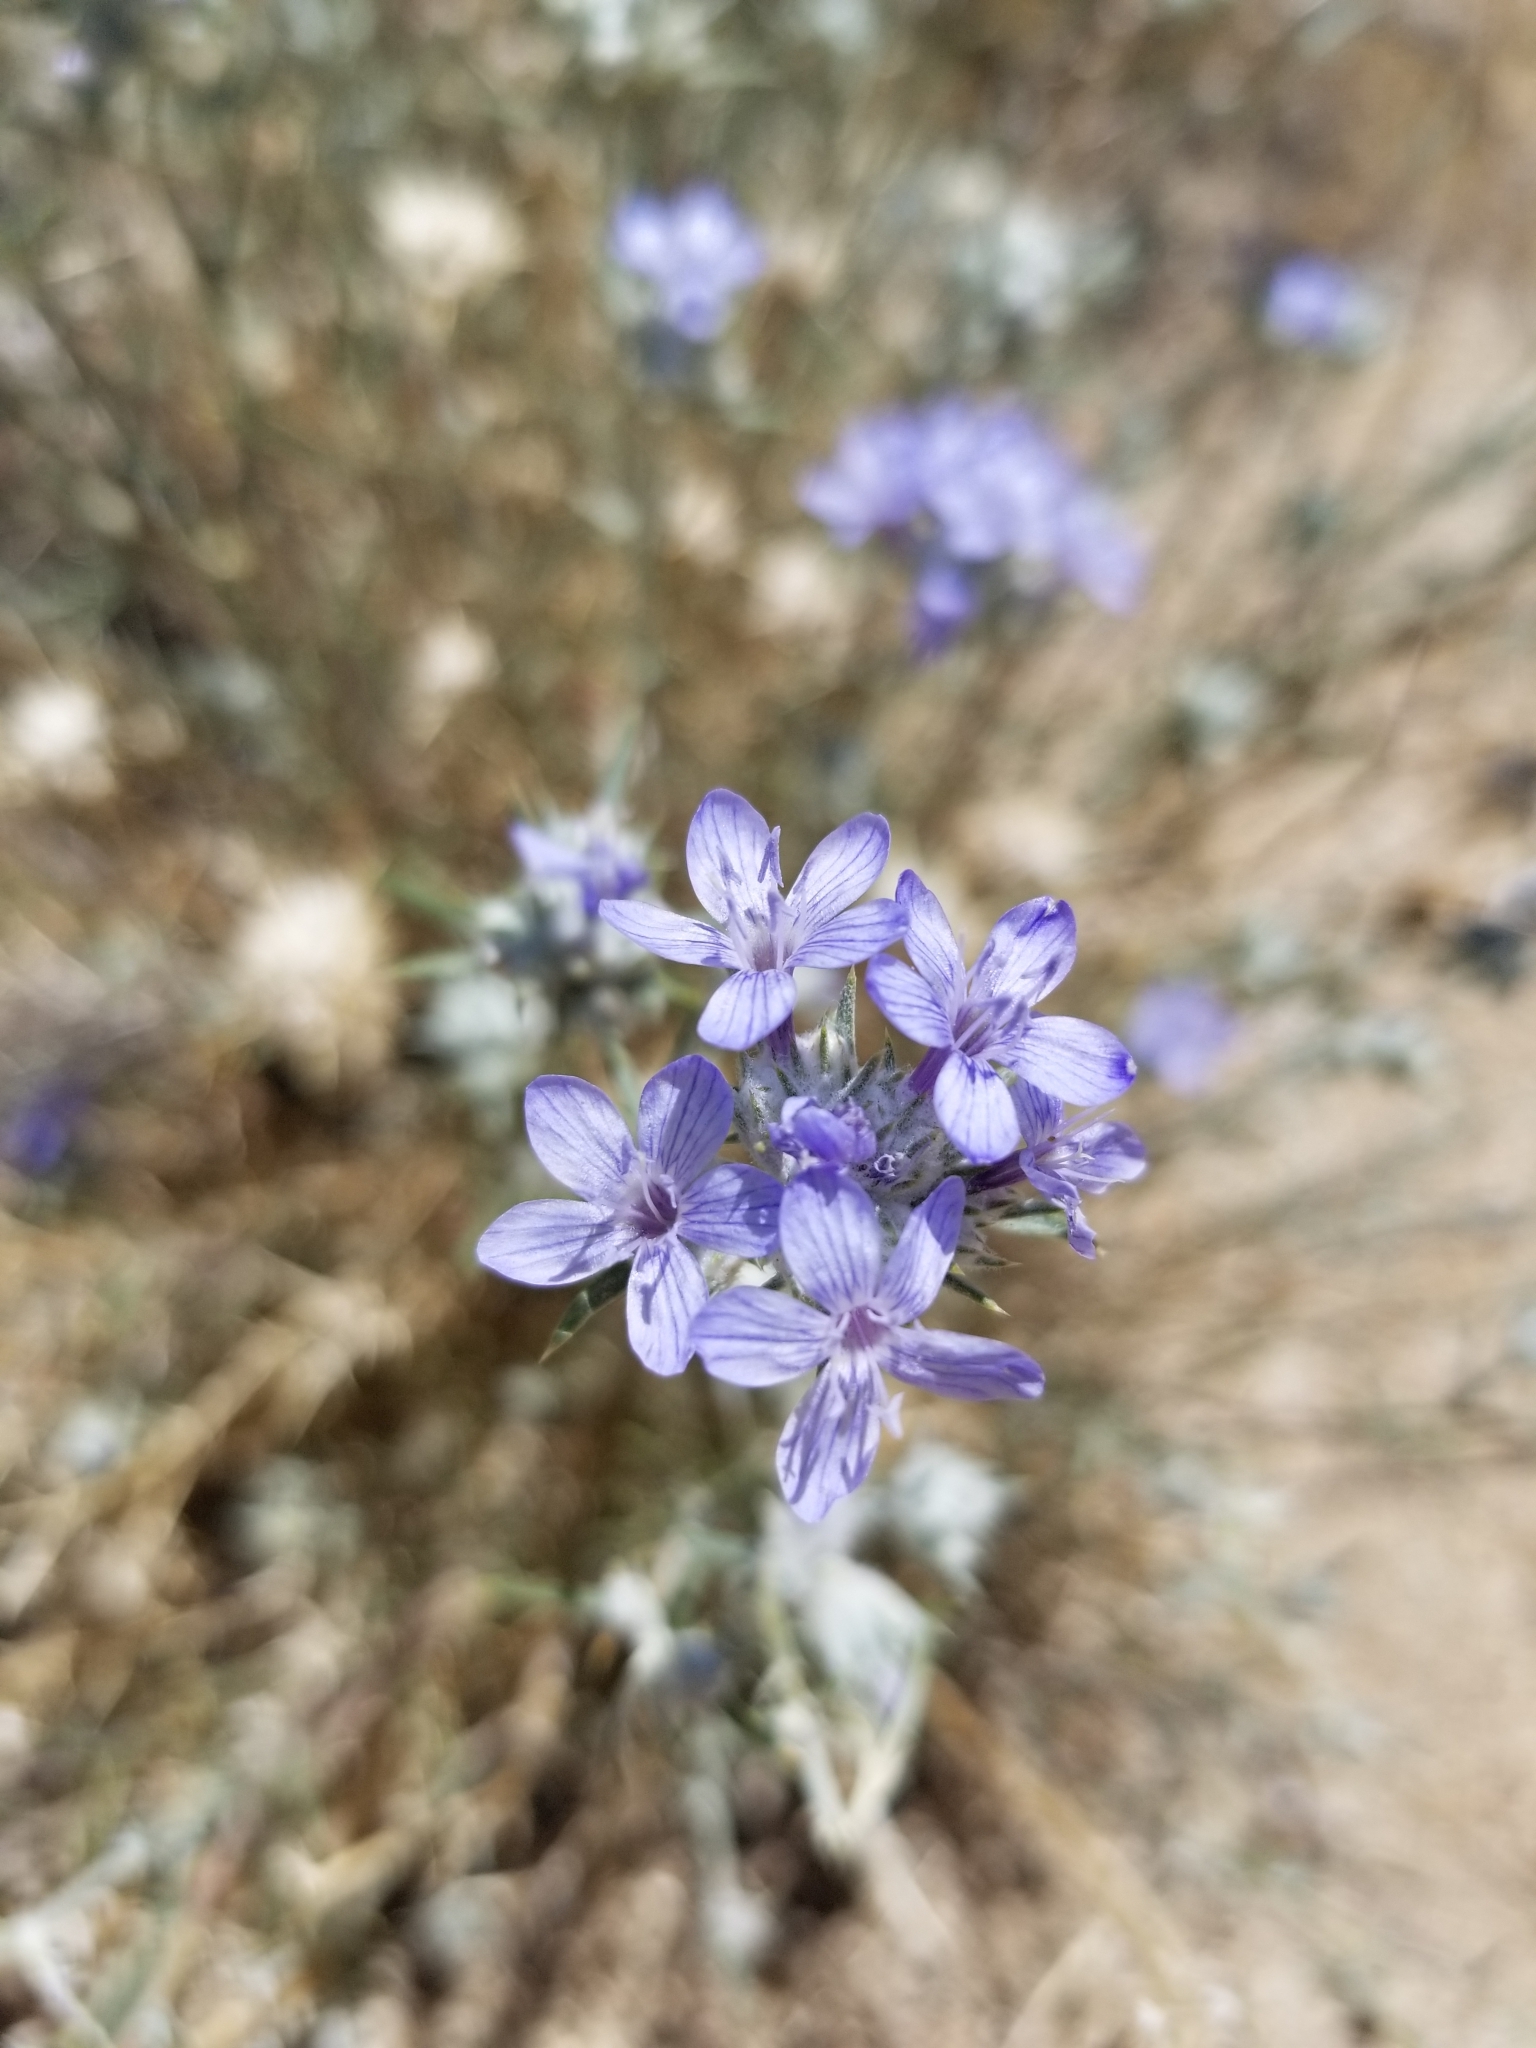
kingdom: Plantae
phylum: Tracheophyta
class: Magnoliopsida
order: Ericales
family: Polemoniaceae
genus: Eriastrum
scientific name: Eriastrum densifolium
